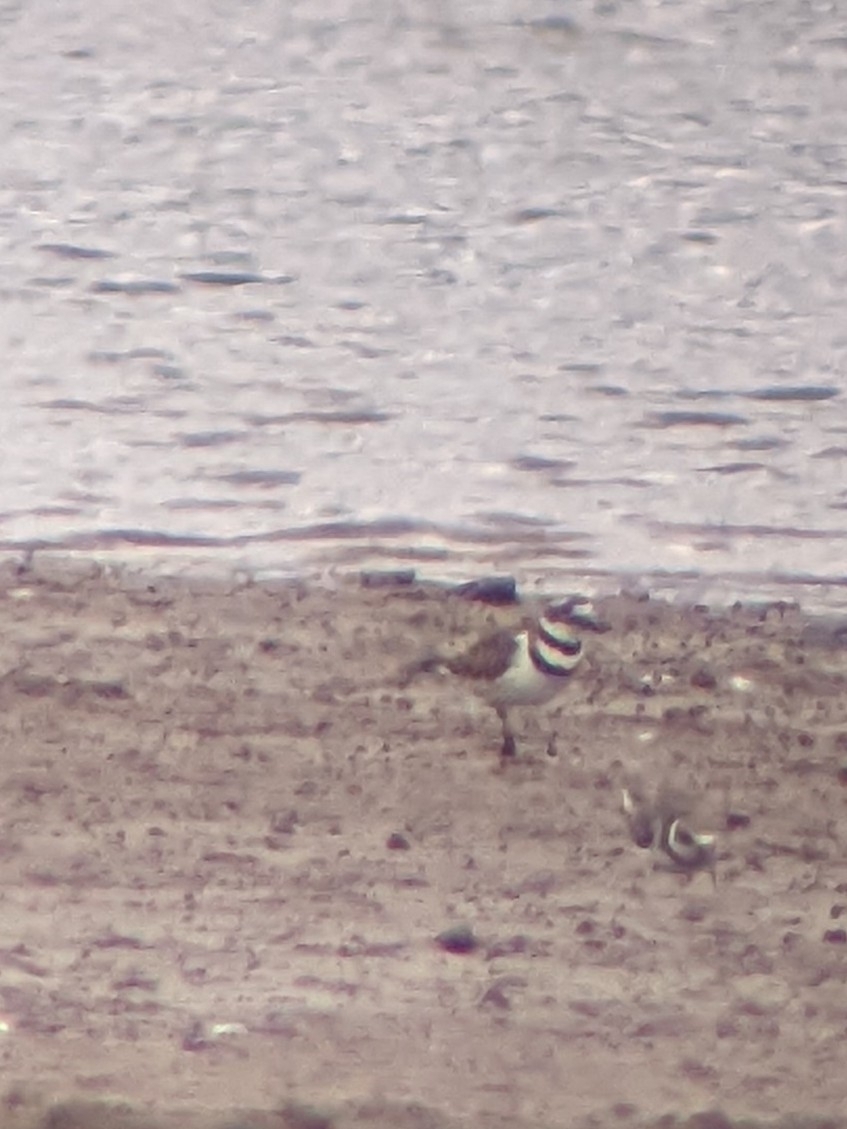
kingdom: Animalia
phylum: Chordata
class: Aves
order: Charadriiformes
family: Charadriidae
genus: Charadrius
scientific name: Charadrius vociferus
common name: Killdeer
